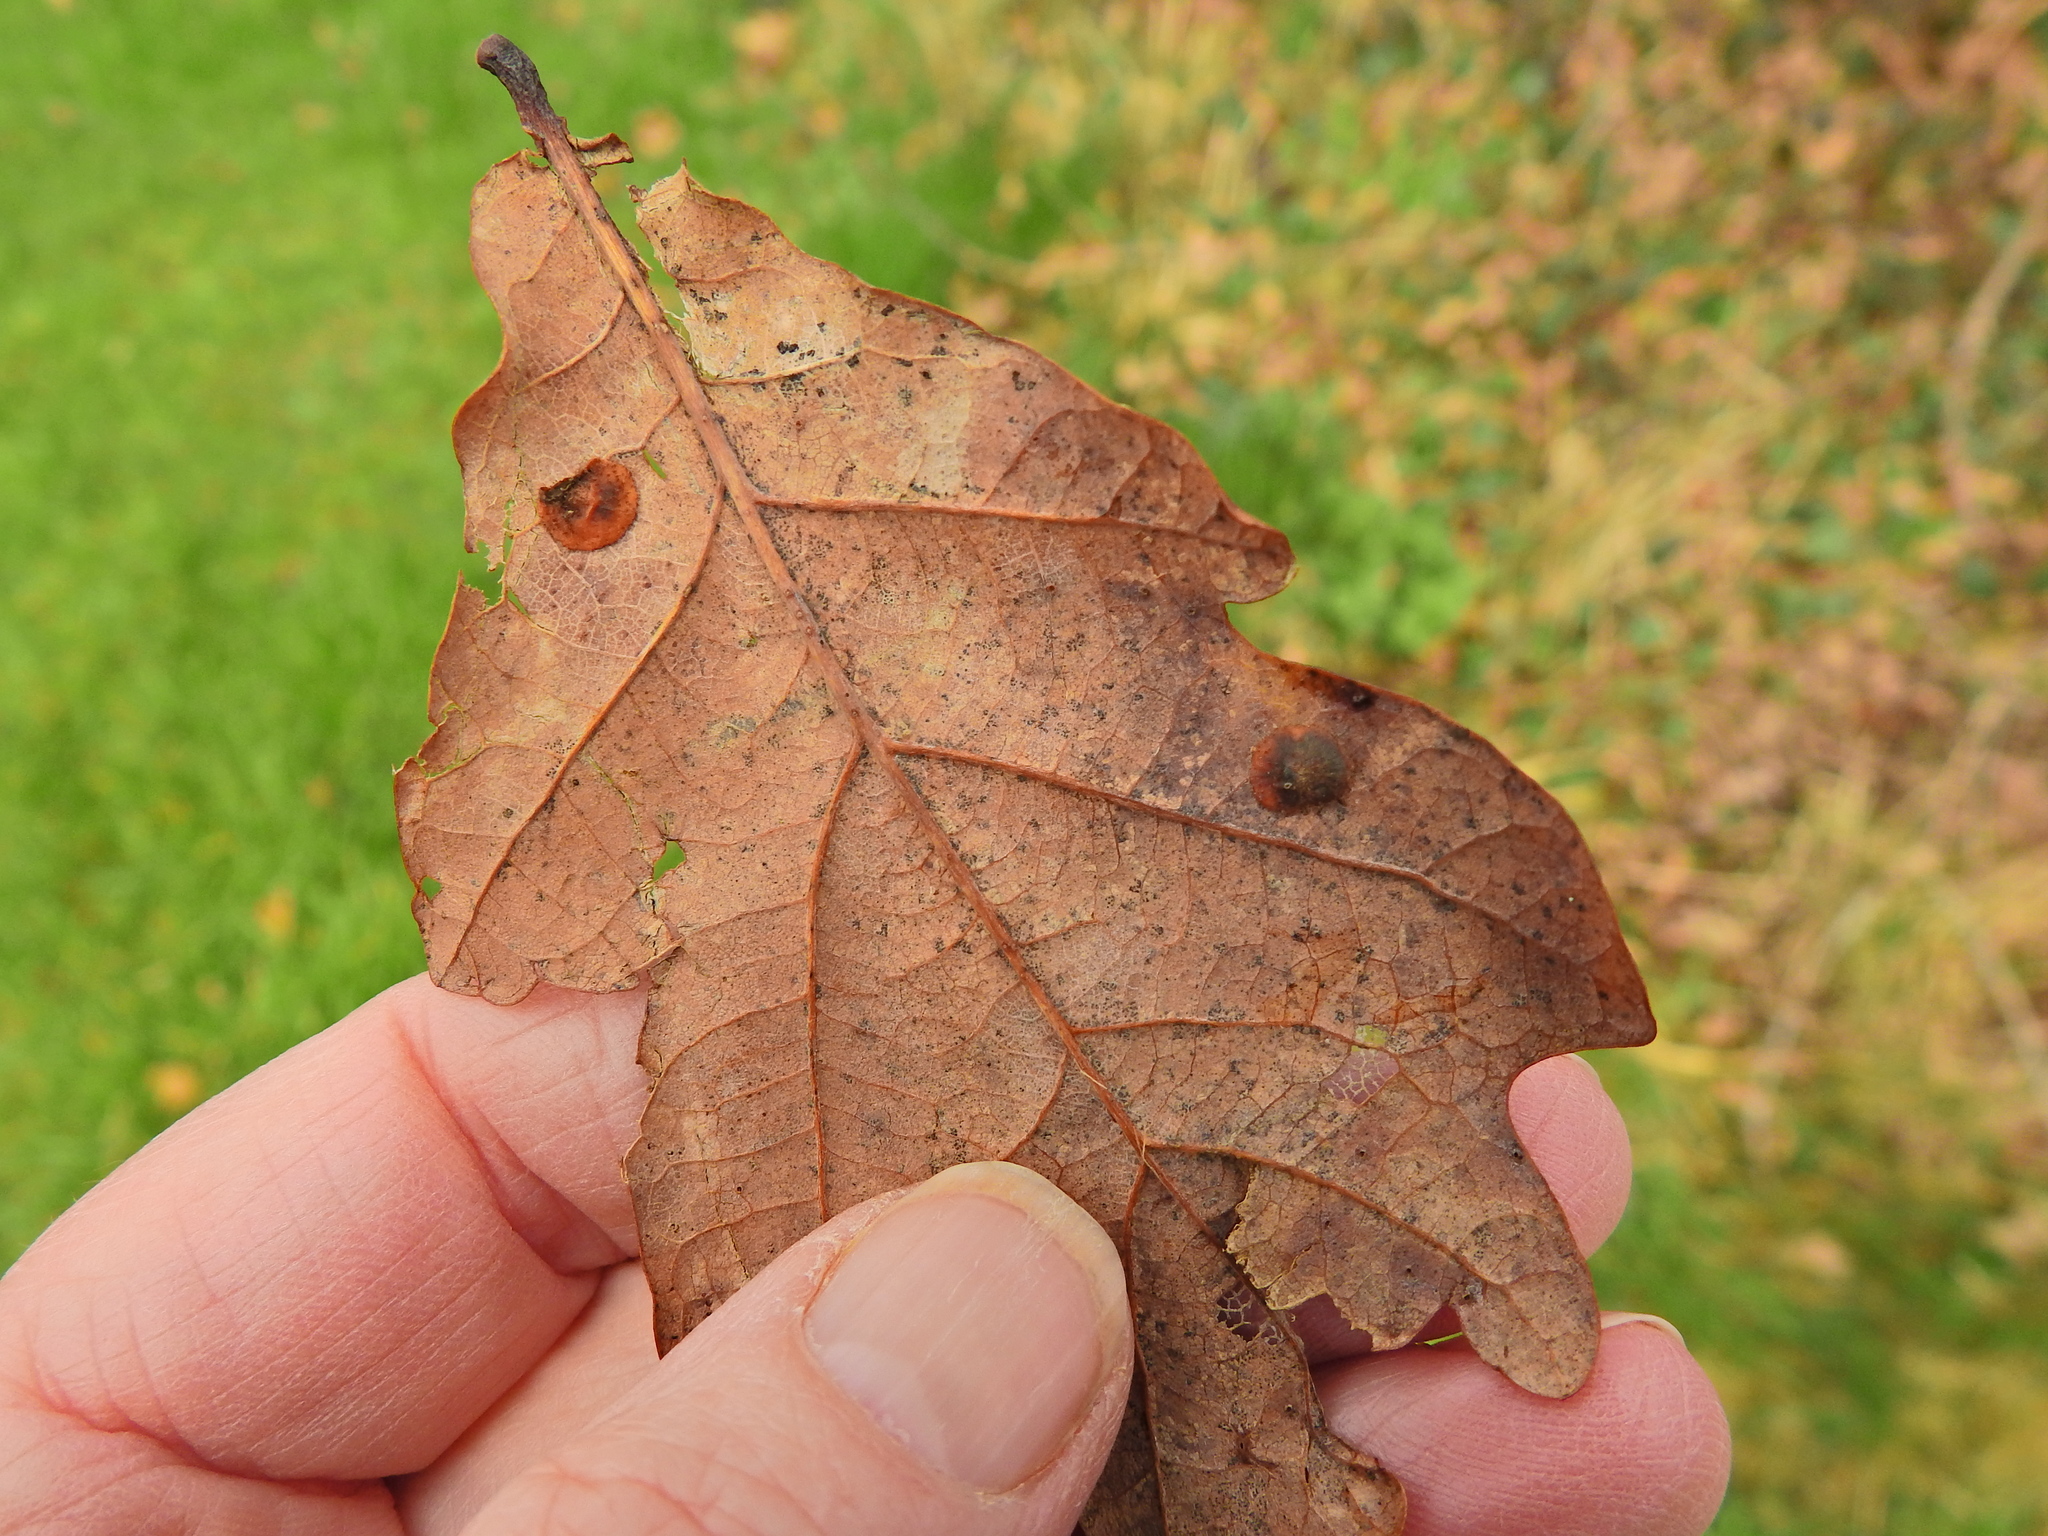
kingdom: Animalia
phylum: Arthropoda
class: Insecta
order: Hymenoptera
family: Cynipidae
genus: Neuroterus
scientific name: Neuroterus quercusbaccarum
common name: Common spangle gall
